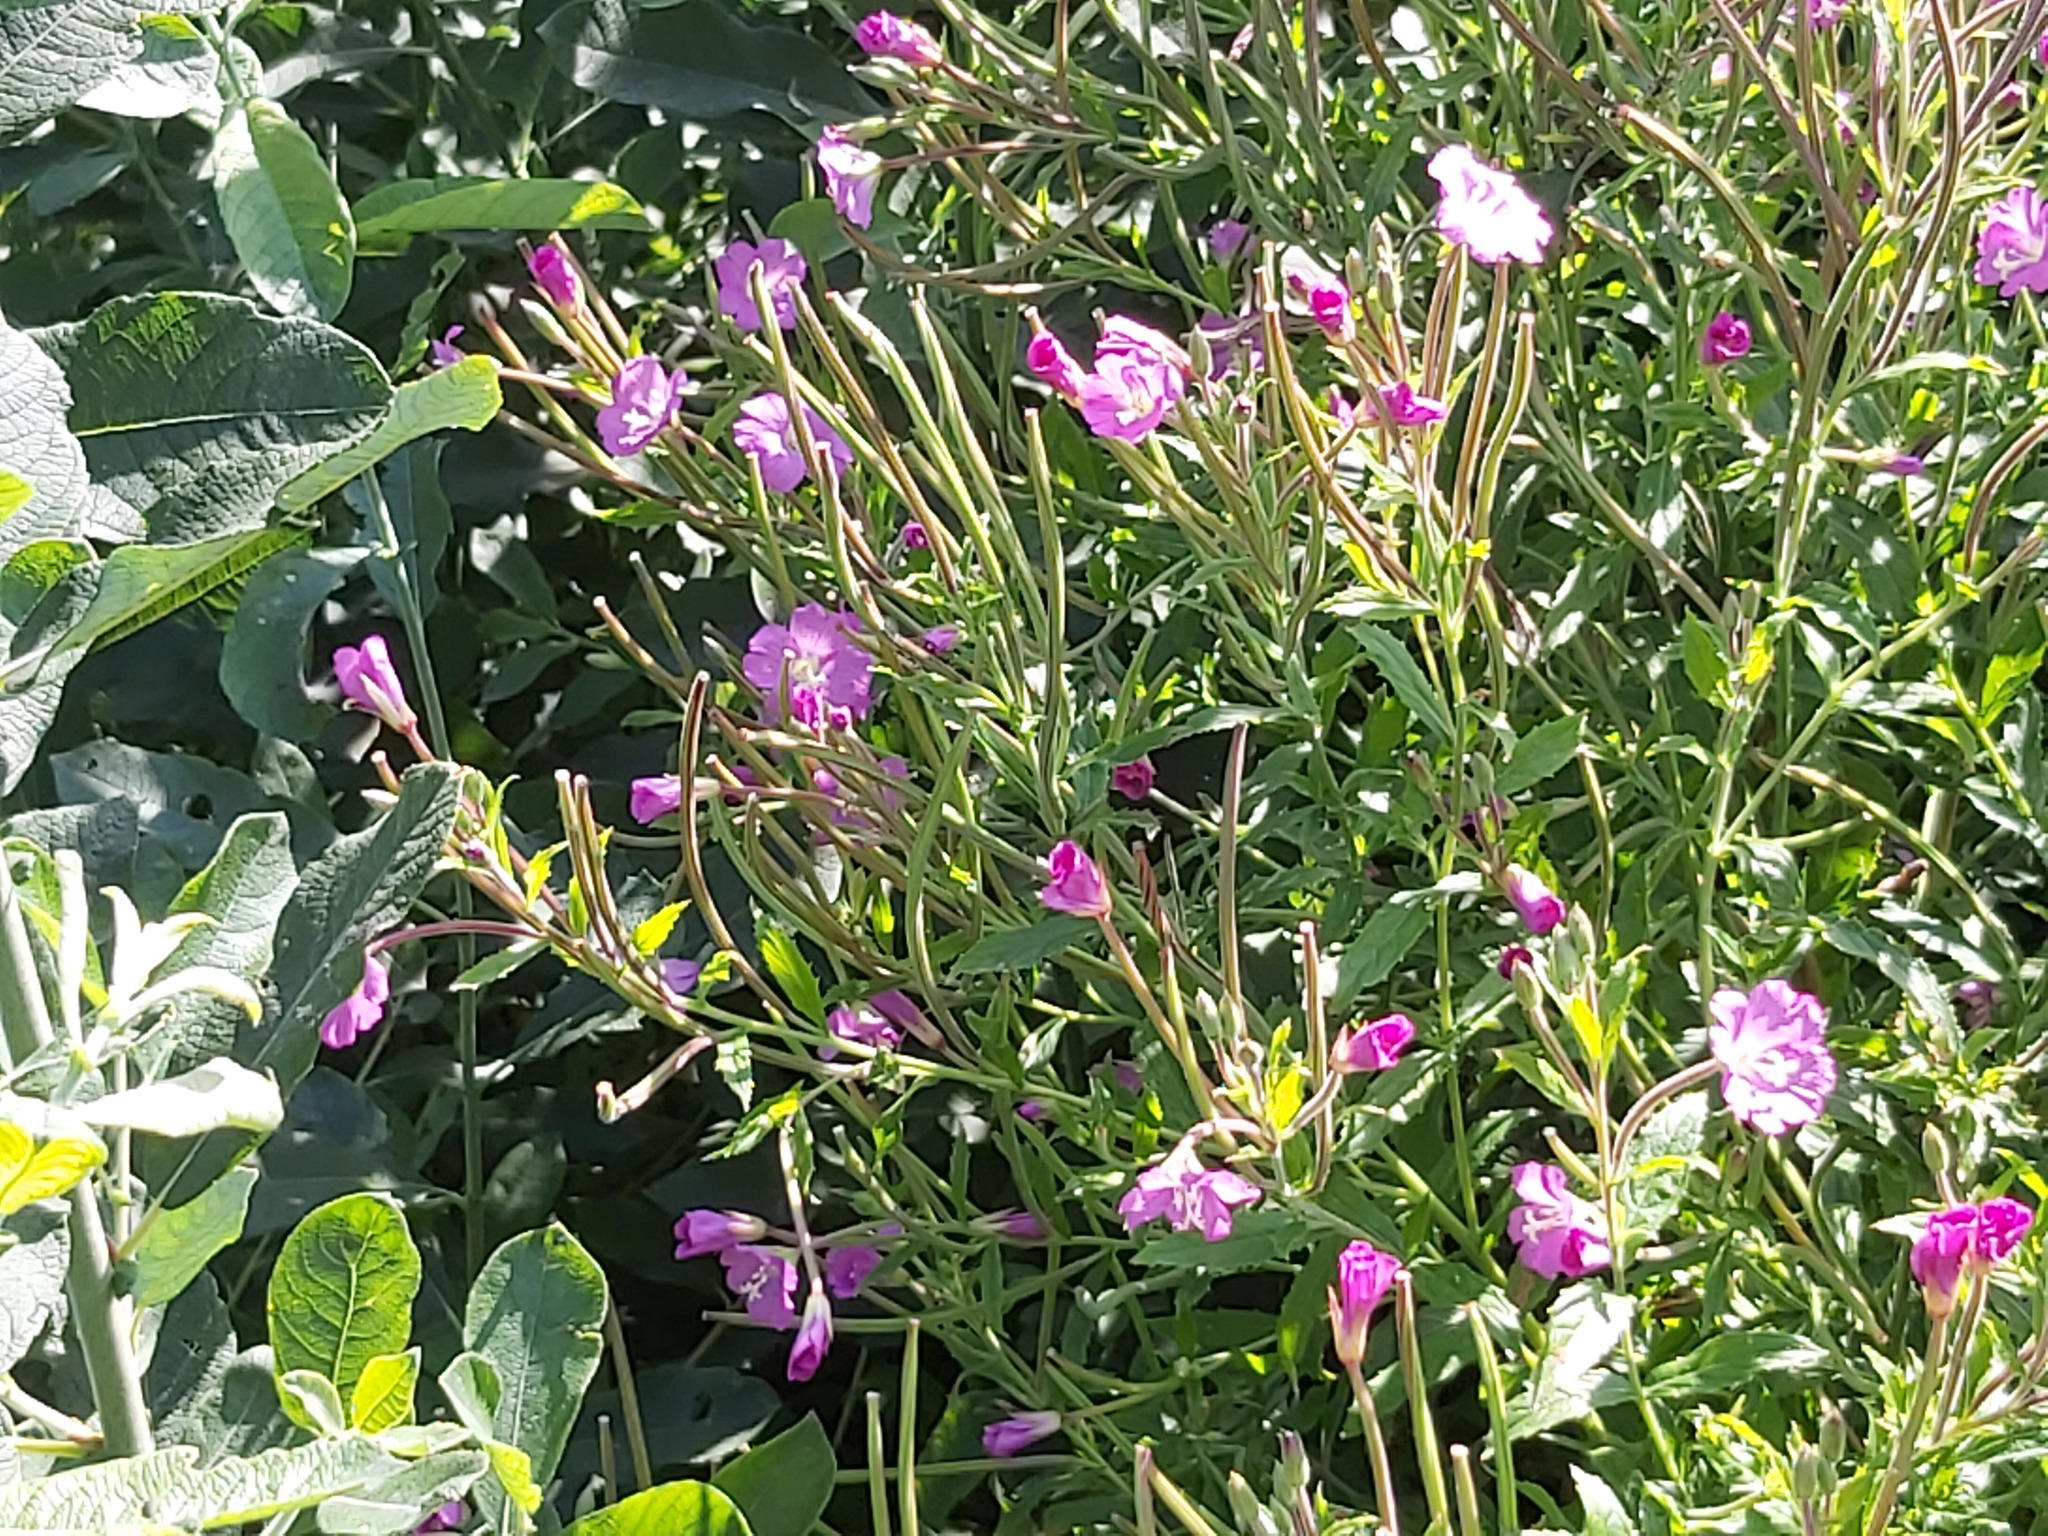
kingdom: Plantae
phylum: Tracheophyta
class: Magnoliopsida
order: Myrtales
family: Onagraceae
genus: Epilobium
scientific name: Epilobium hirsutum
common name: Great willowherb
